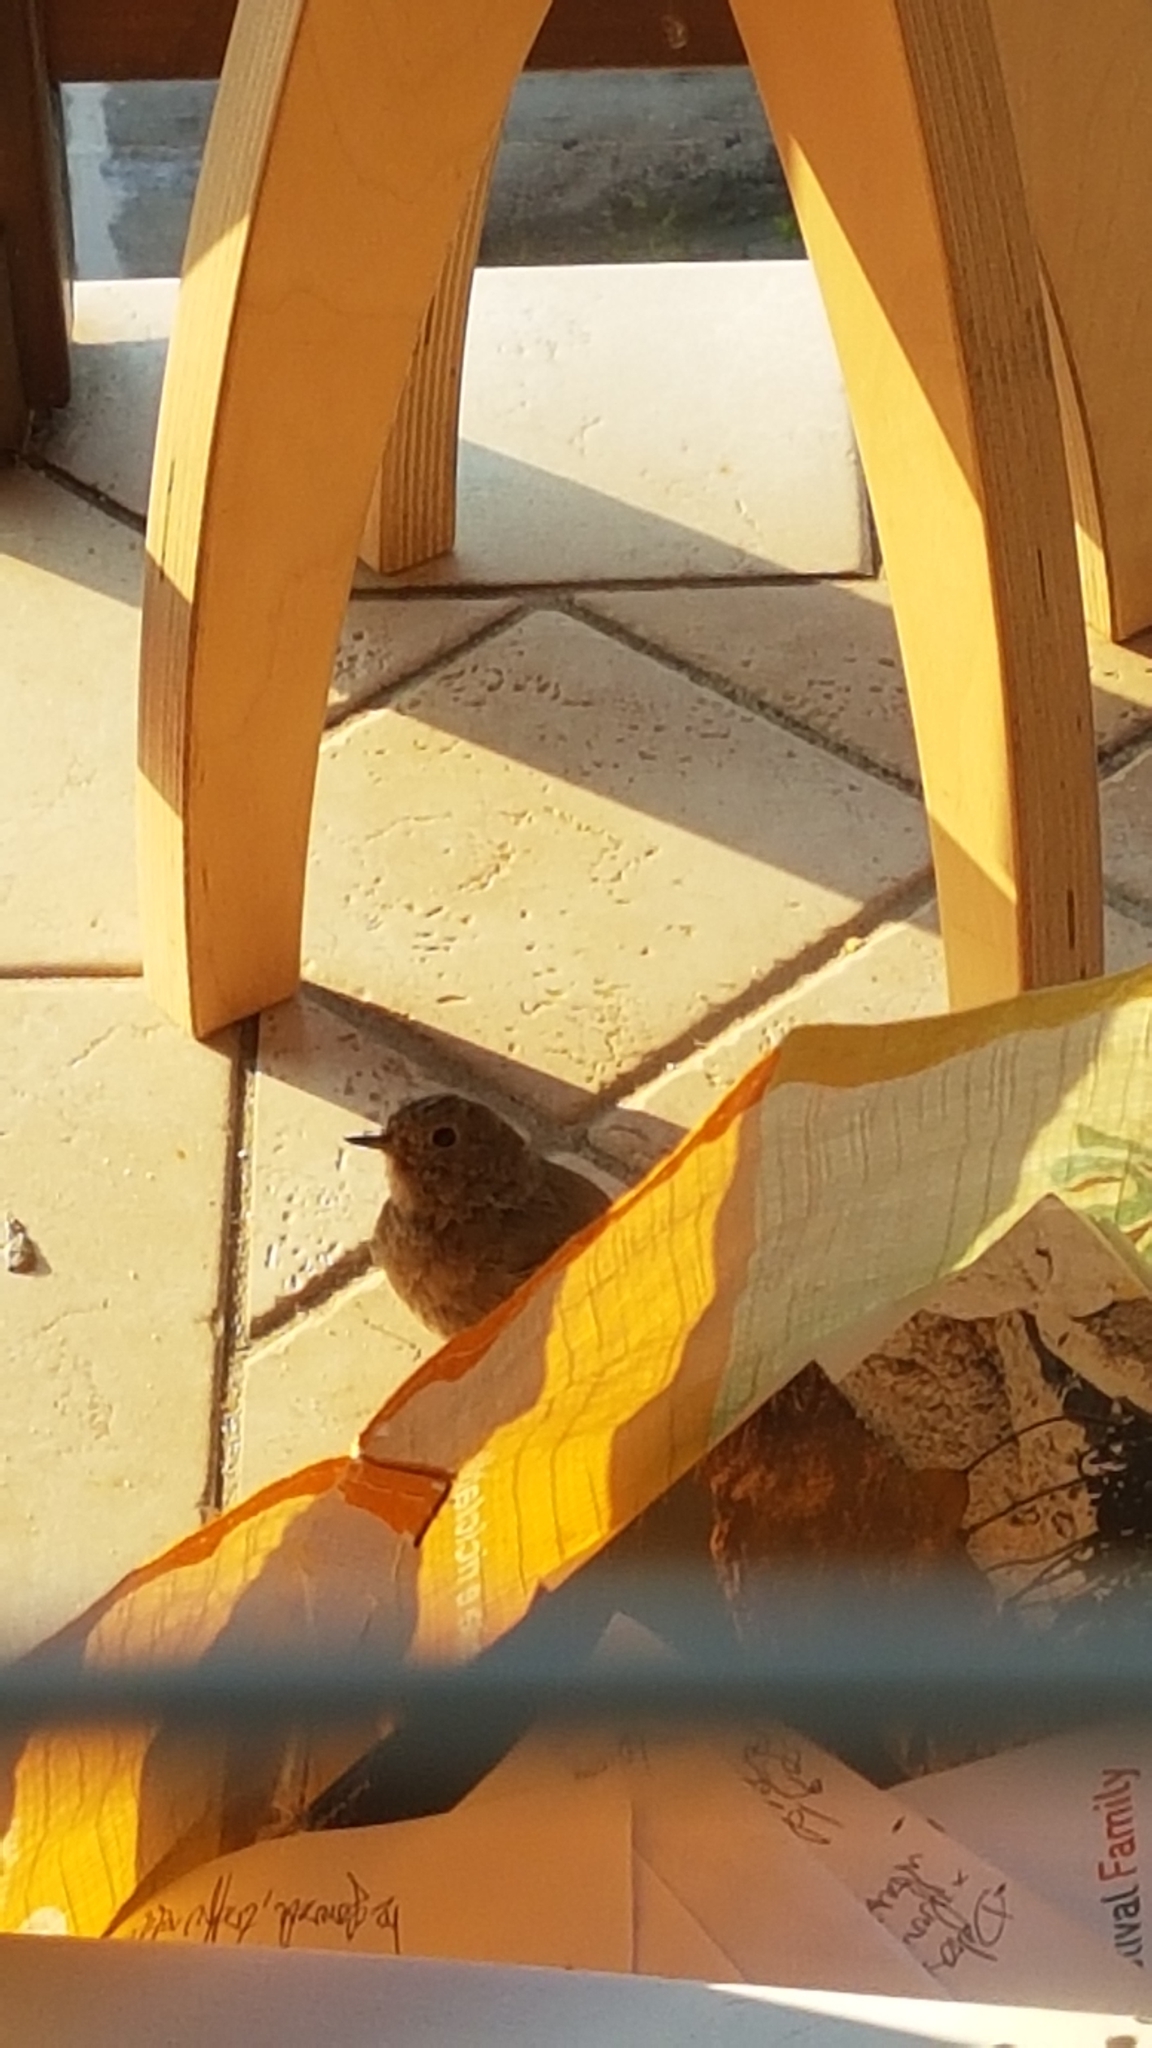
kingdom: Animalia
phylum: Chordata
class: Aves
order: Passeriformes
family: Muscicapidae
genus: Erithacus
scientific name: Erithacus rubecula
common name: European robin
